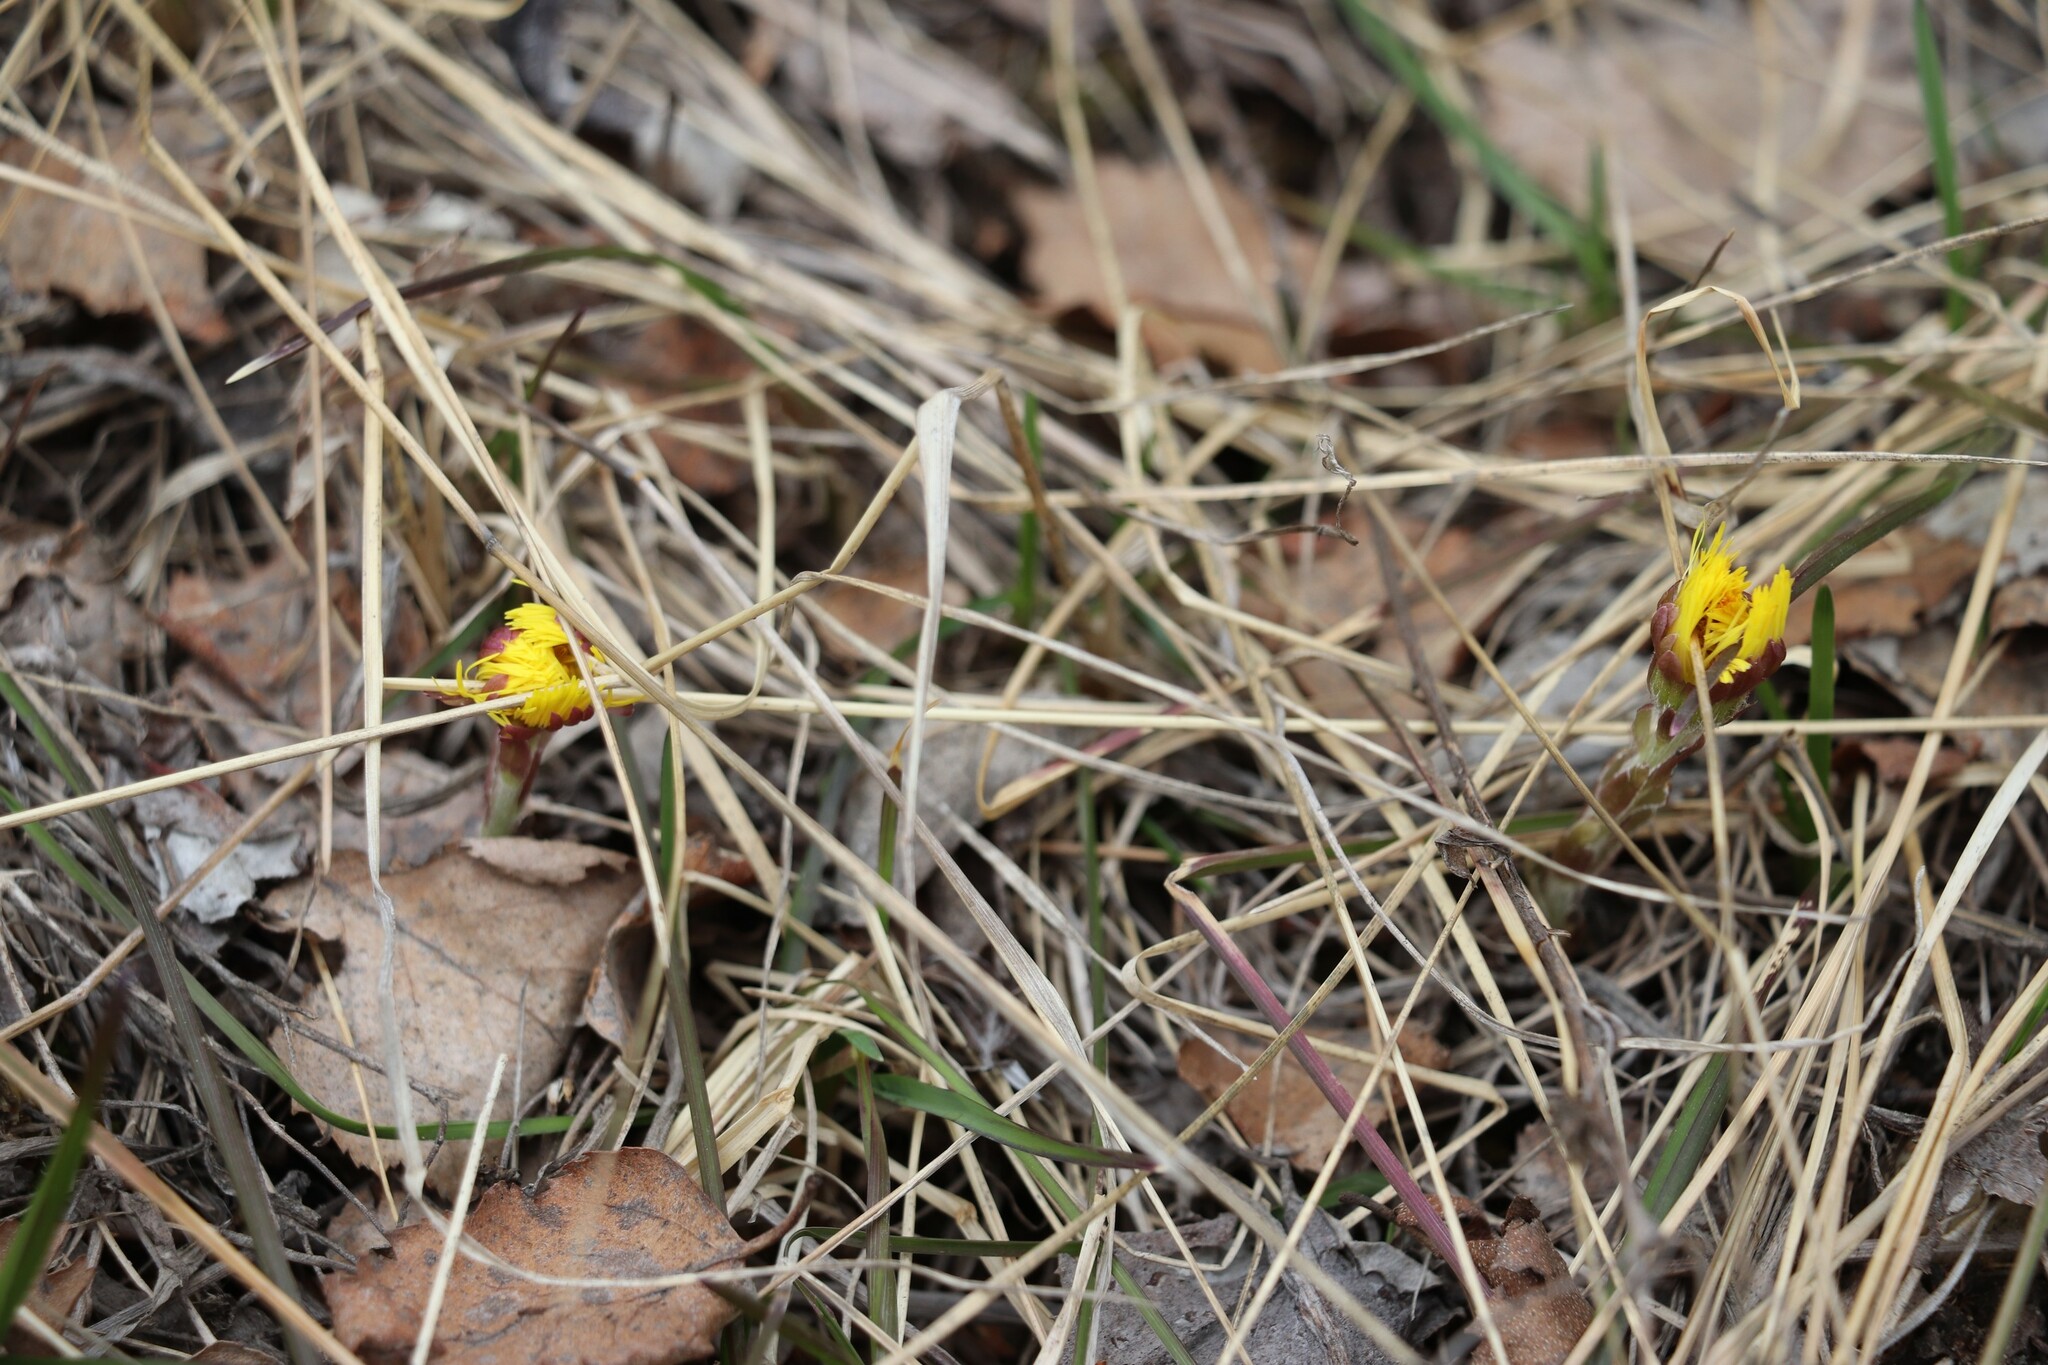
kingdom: Plantae
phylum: Tracheophyta
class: Magnoliopsida
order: Asterales
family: Asteraceae
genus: Tussilago
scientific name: Tussilago farfara
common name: Coltsfoot
